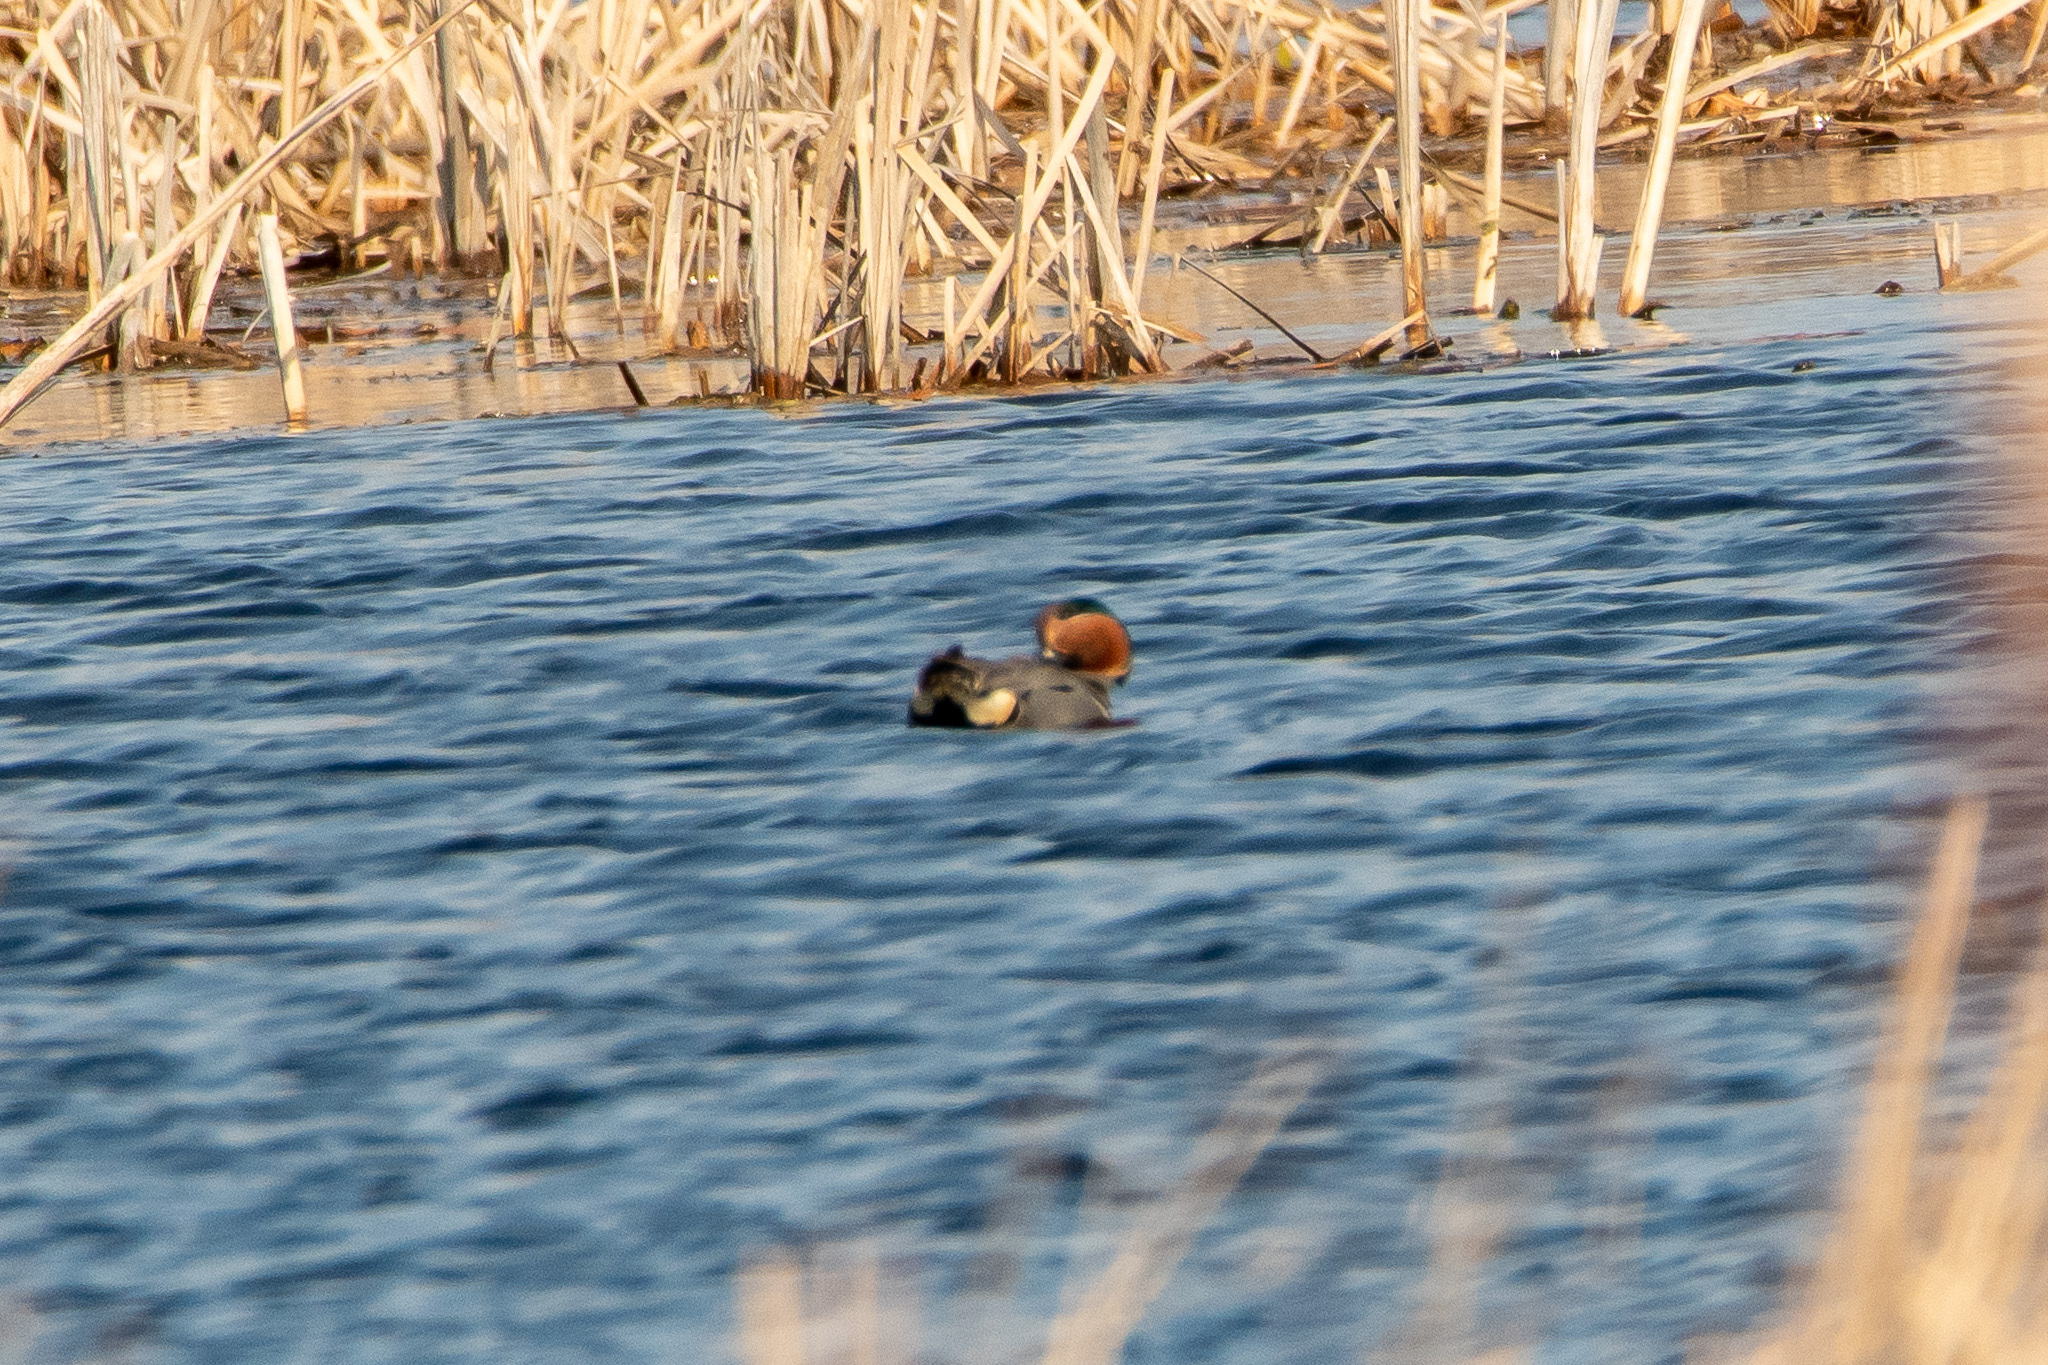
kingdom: Animalia
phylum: Chordata
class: Aves
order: Anseriformes
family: Anatidae
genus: Anas
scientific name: Anas crecca
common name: Eurasian teal
